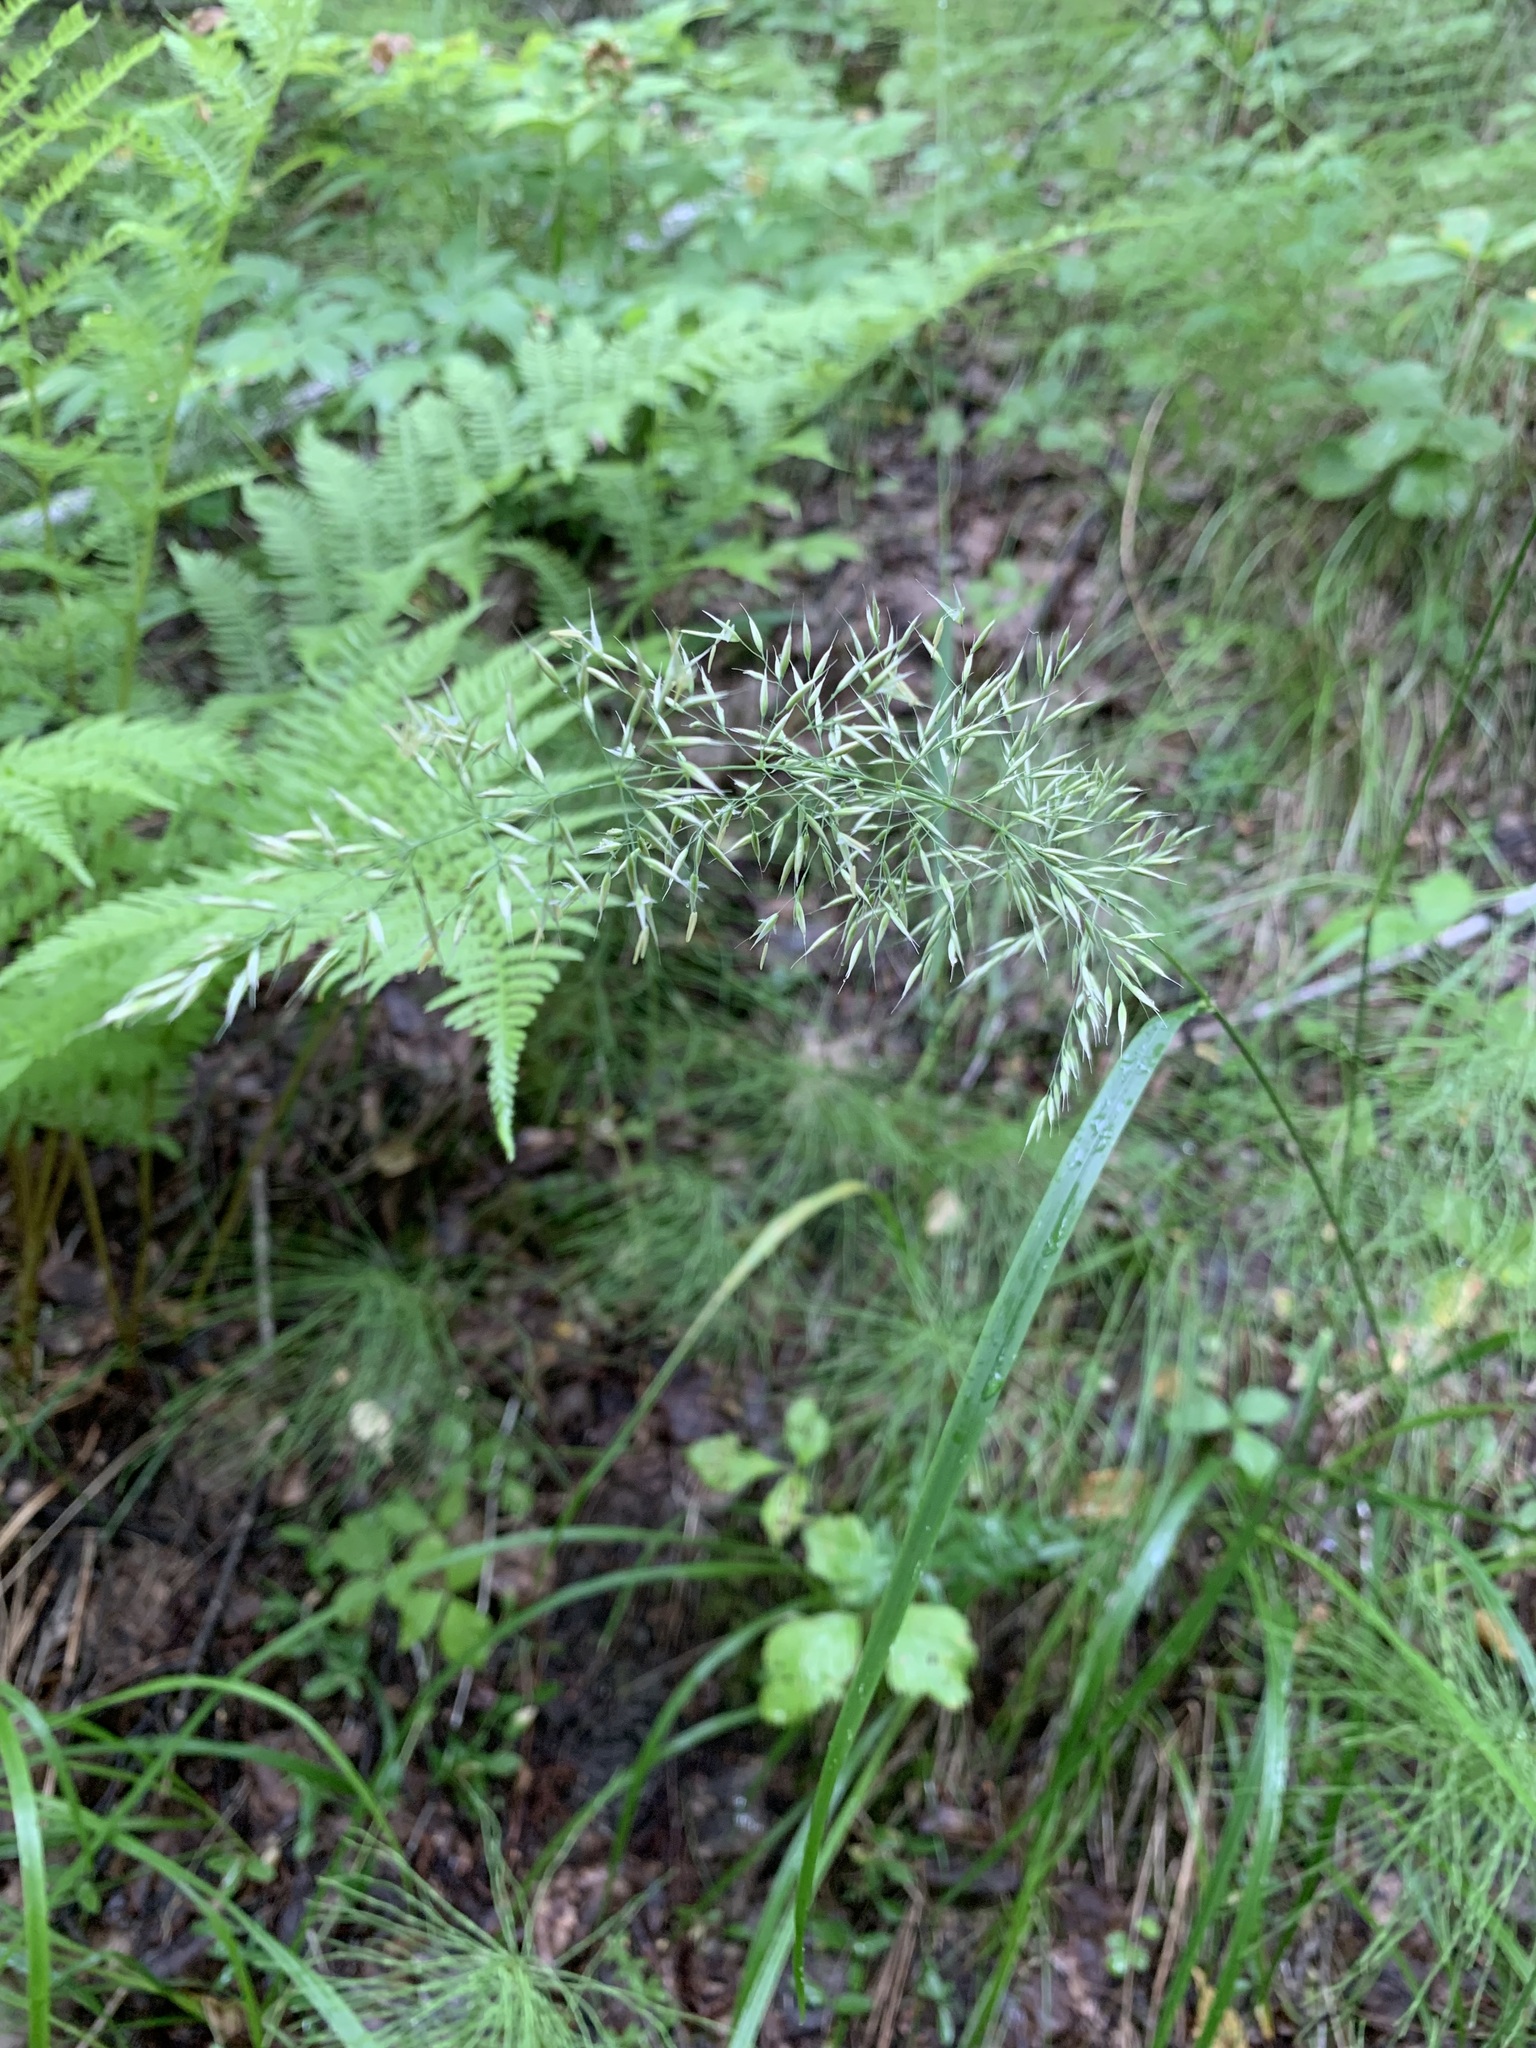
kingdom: Plantae
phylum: Tracheophyta
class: Liliopsida
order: Poales
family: Poaceae
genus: Calamagrostis
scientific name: Calamagrostis arundinacea
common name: Metskastik
